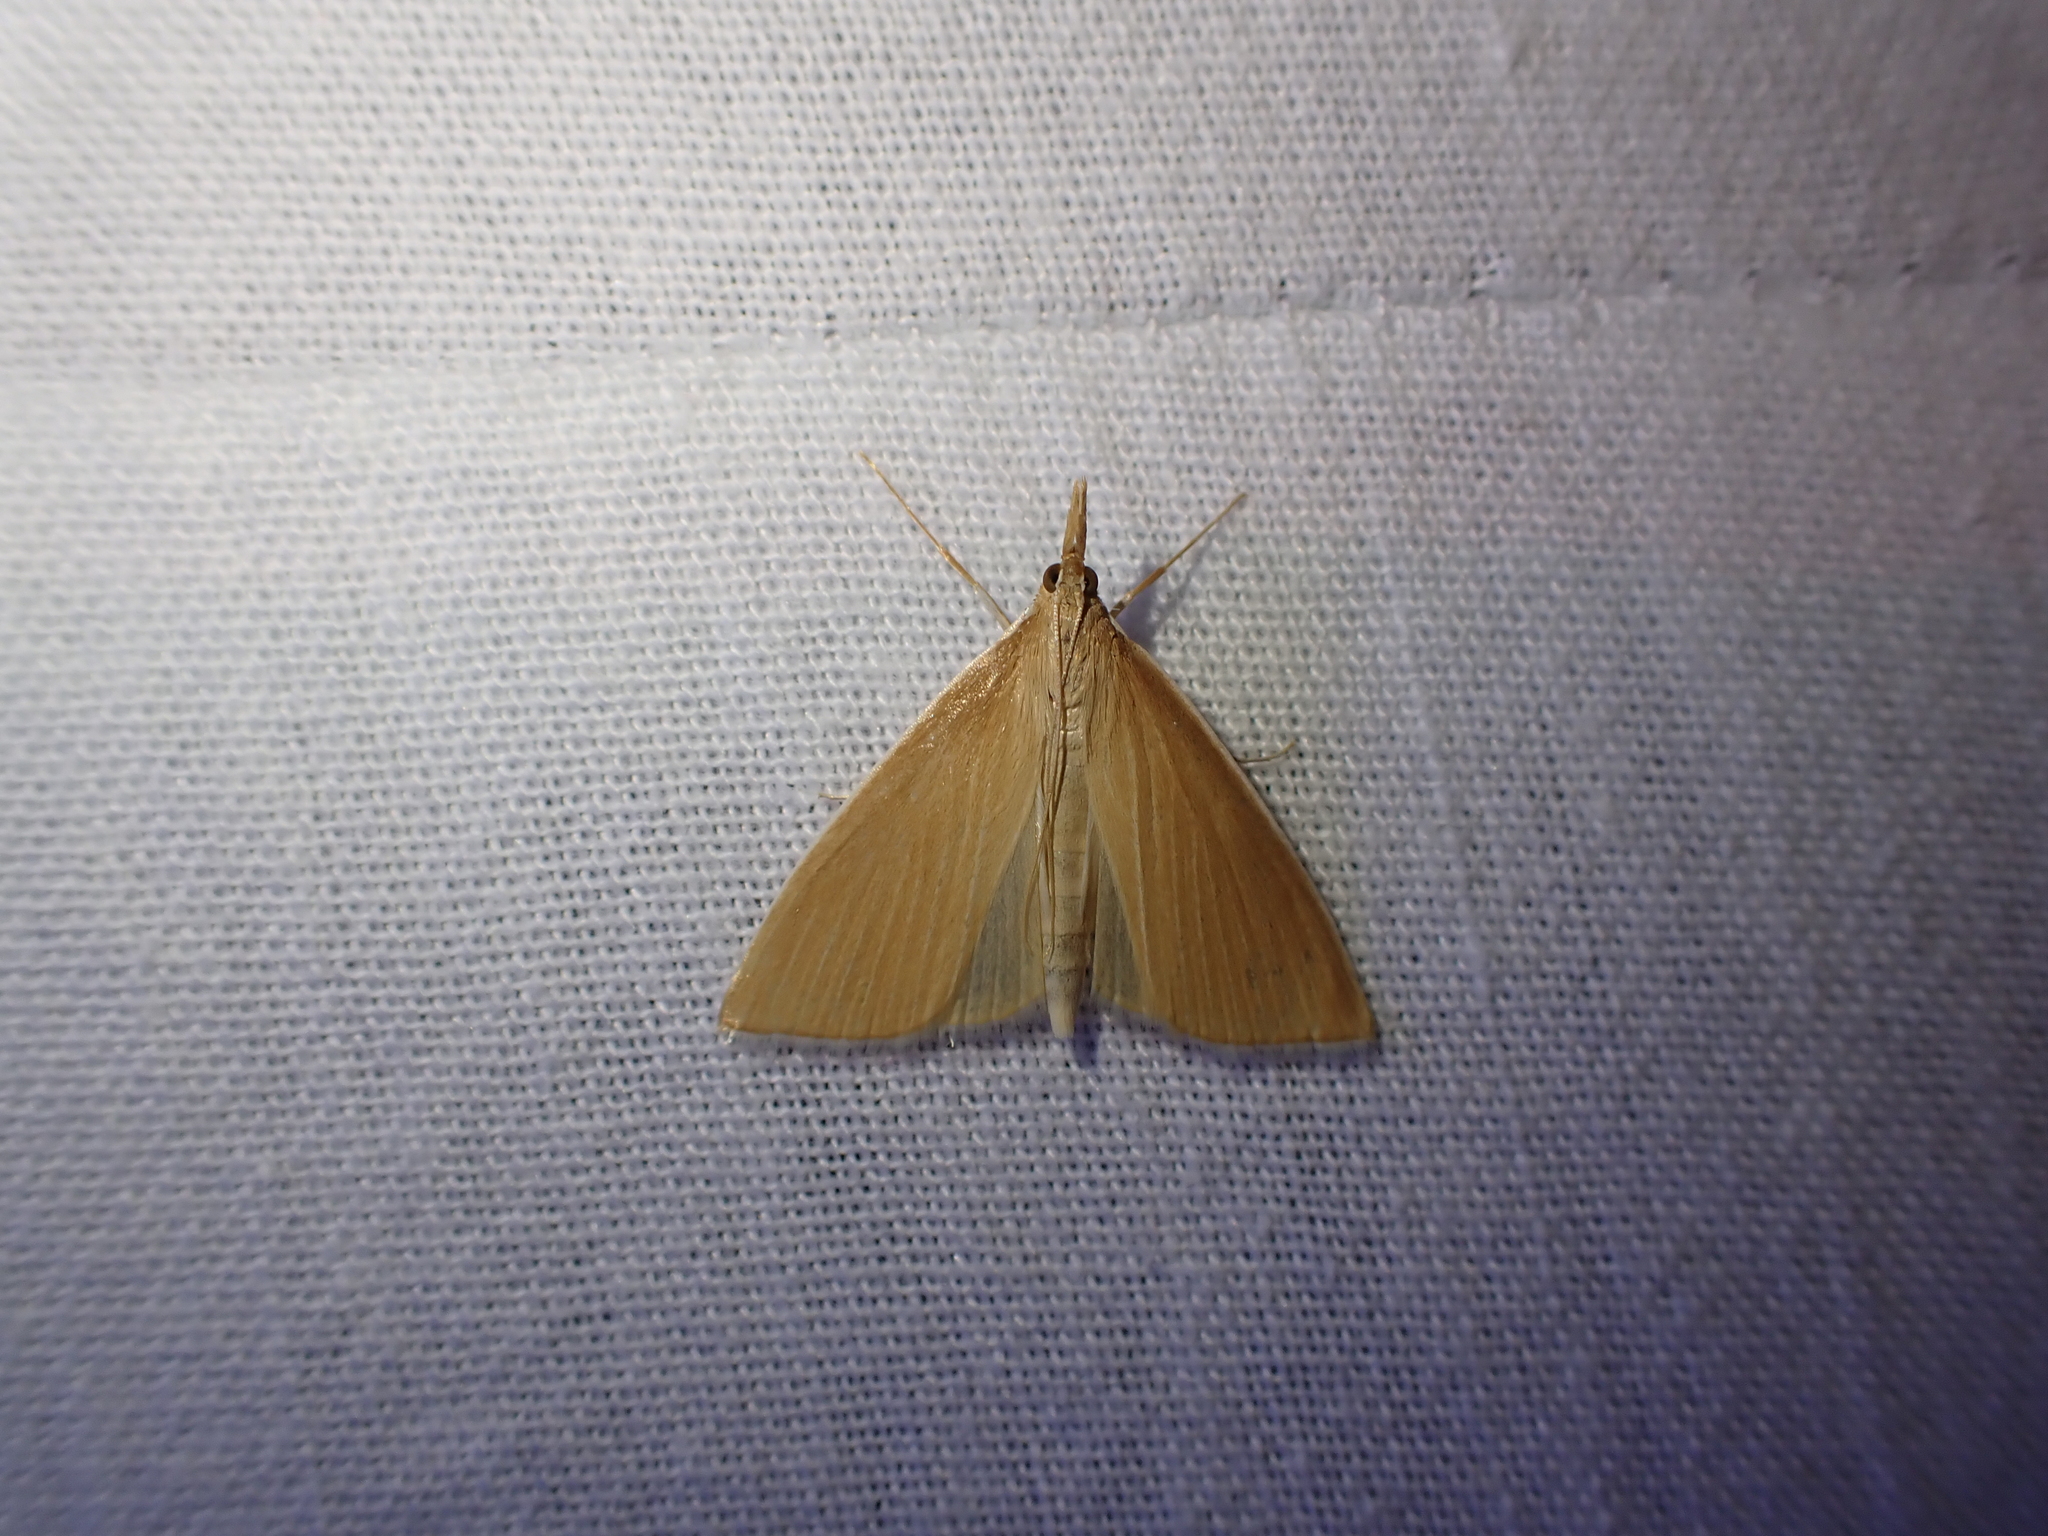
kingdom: Animalia
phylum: Arthropoda
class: Insecta
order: Lepidoptera
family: Crambidae
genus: Calamochrous
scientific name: Calamochrous Sclerocona acutella
